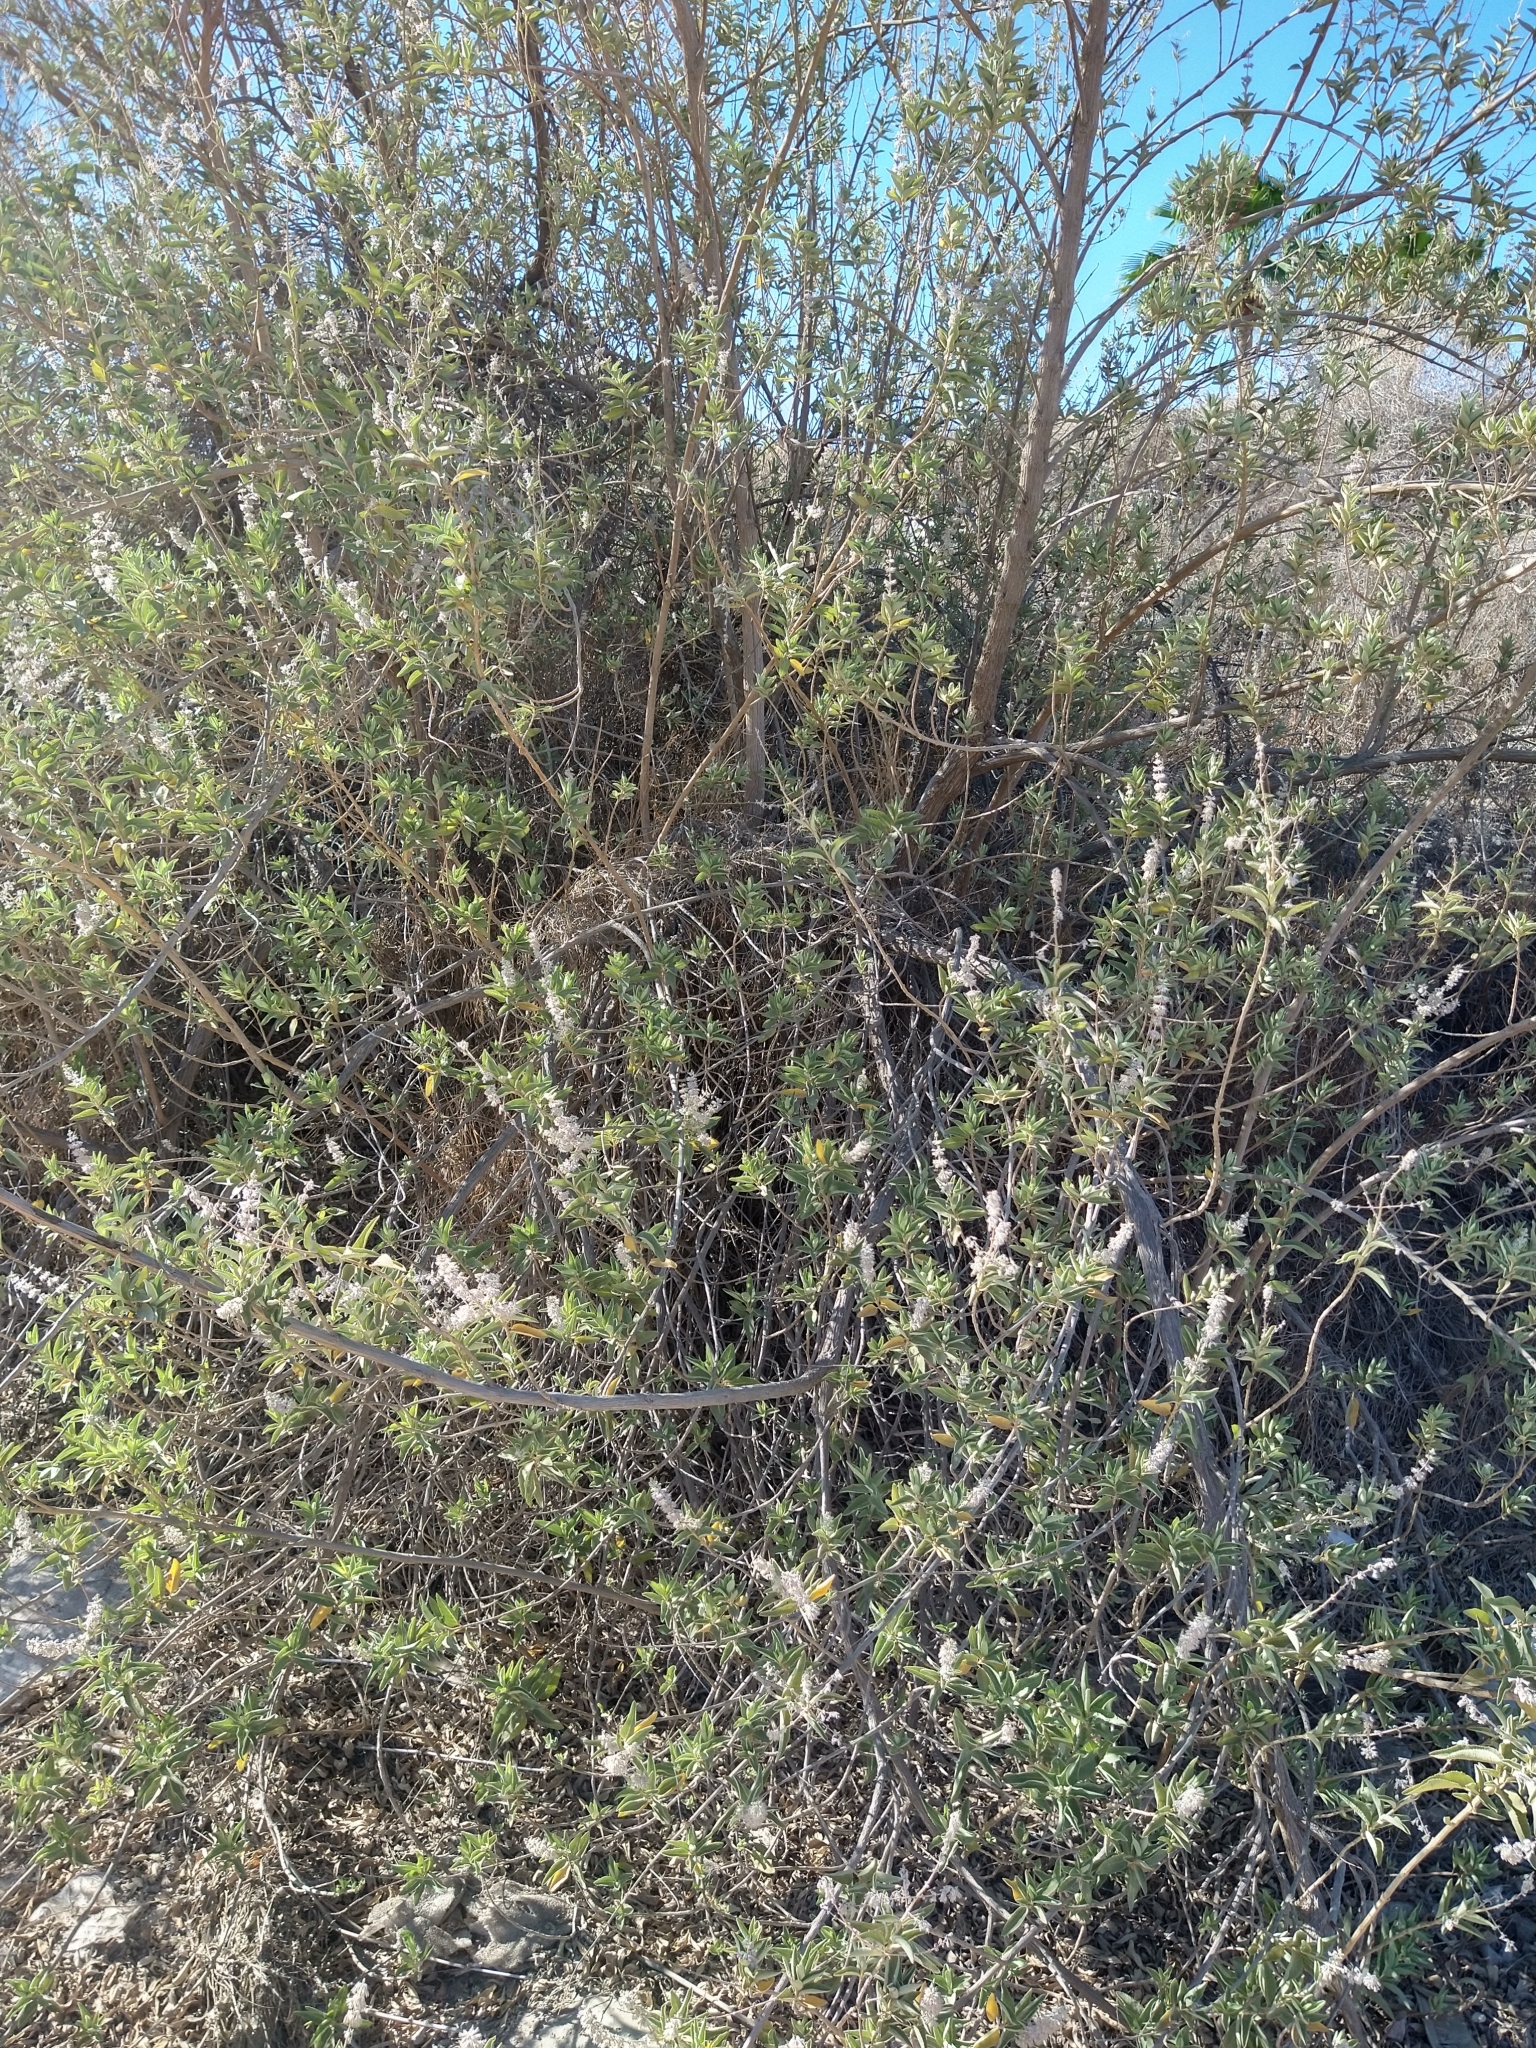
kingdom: Plantae
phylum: Tracheophyta
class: Magnoliopsida
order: Lamiales
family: Lamiaceae
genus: Condea
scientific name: Condea tephrodes
